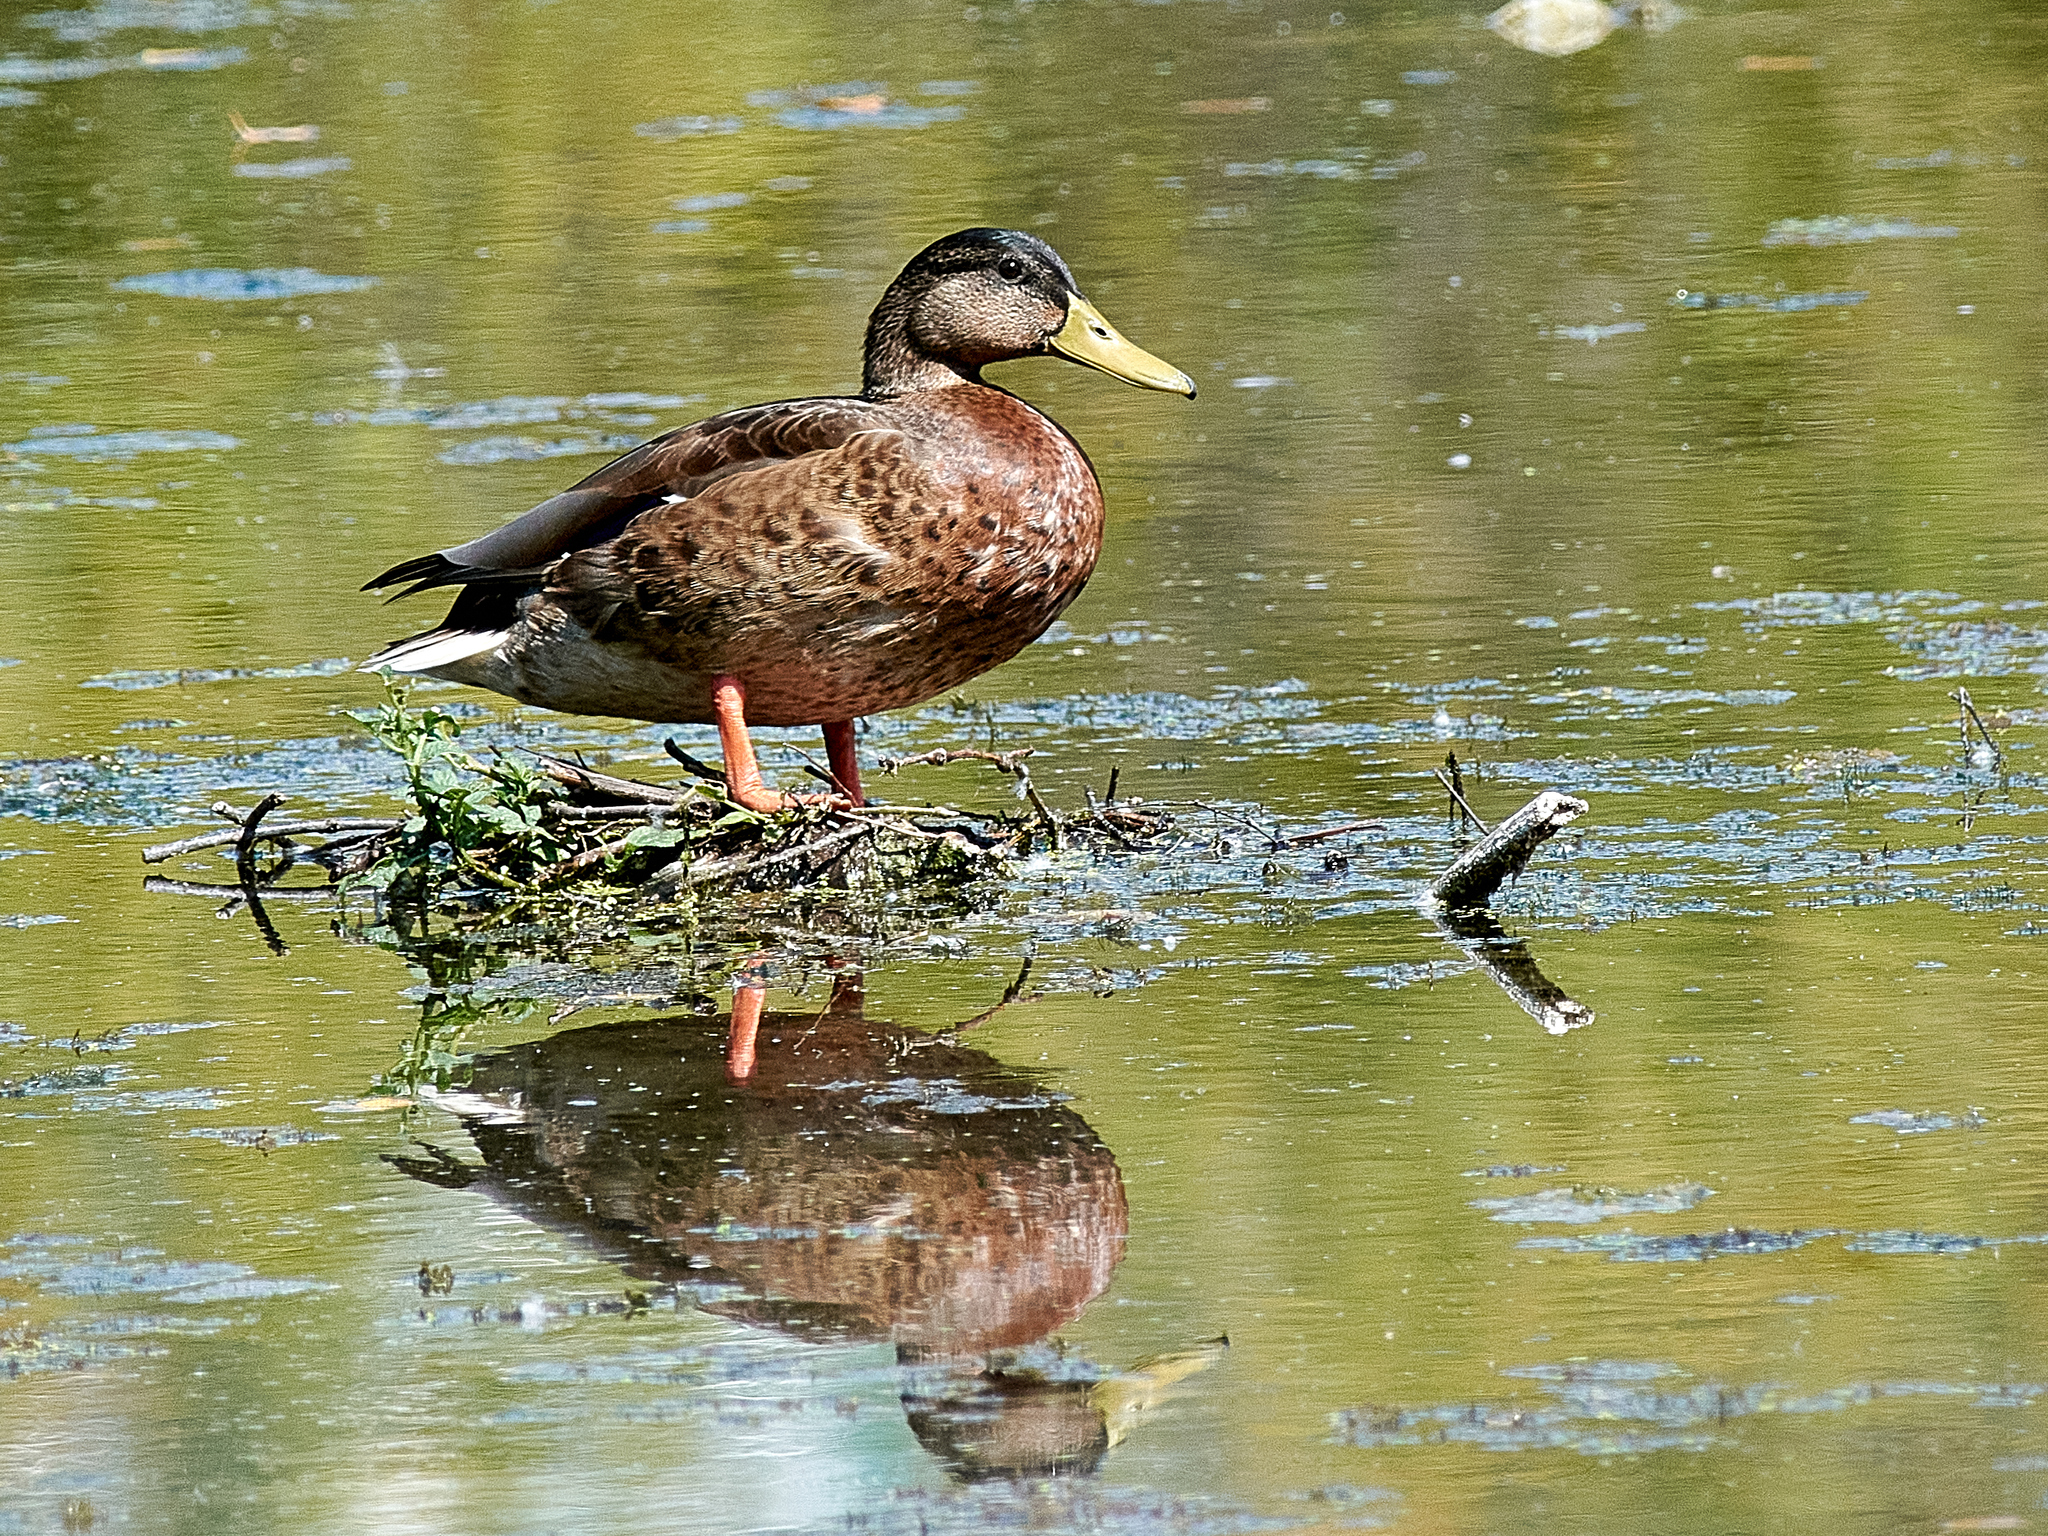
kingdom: Animalia
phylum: Chordata
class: Aves
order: Anseriformes
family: Anatidae
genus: Anas
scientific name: Anas platyrhynchos
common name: Mallard
